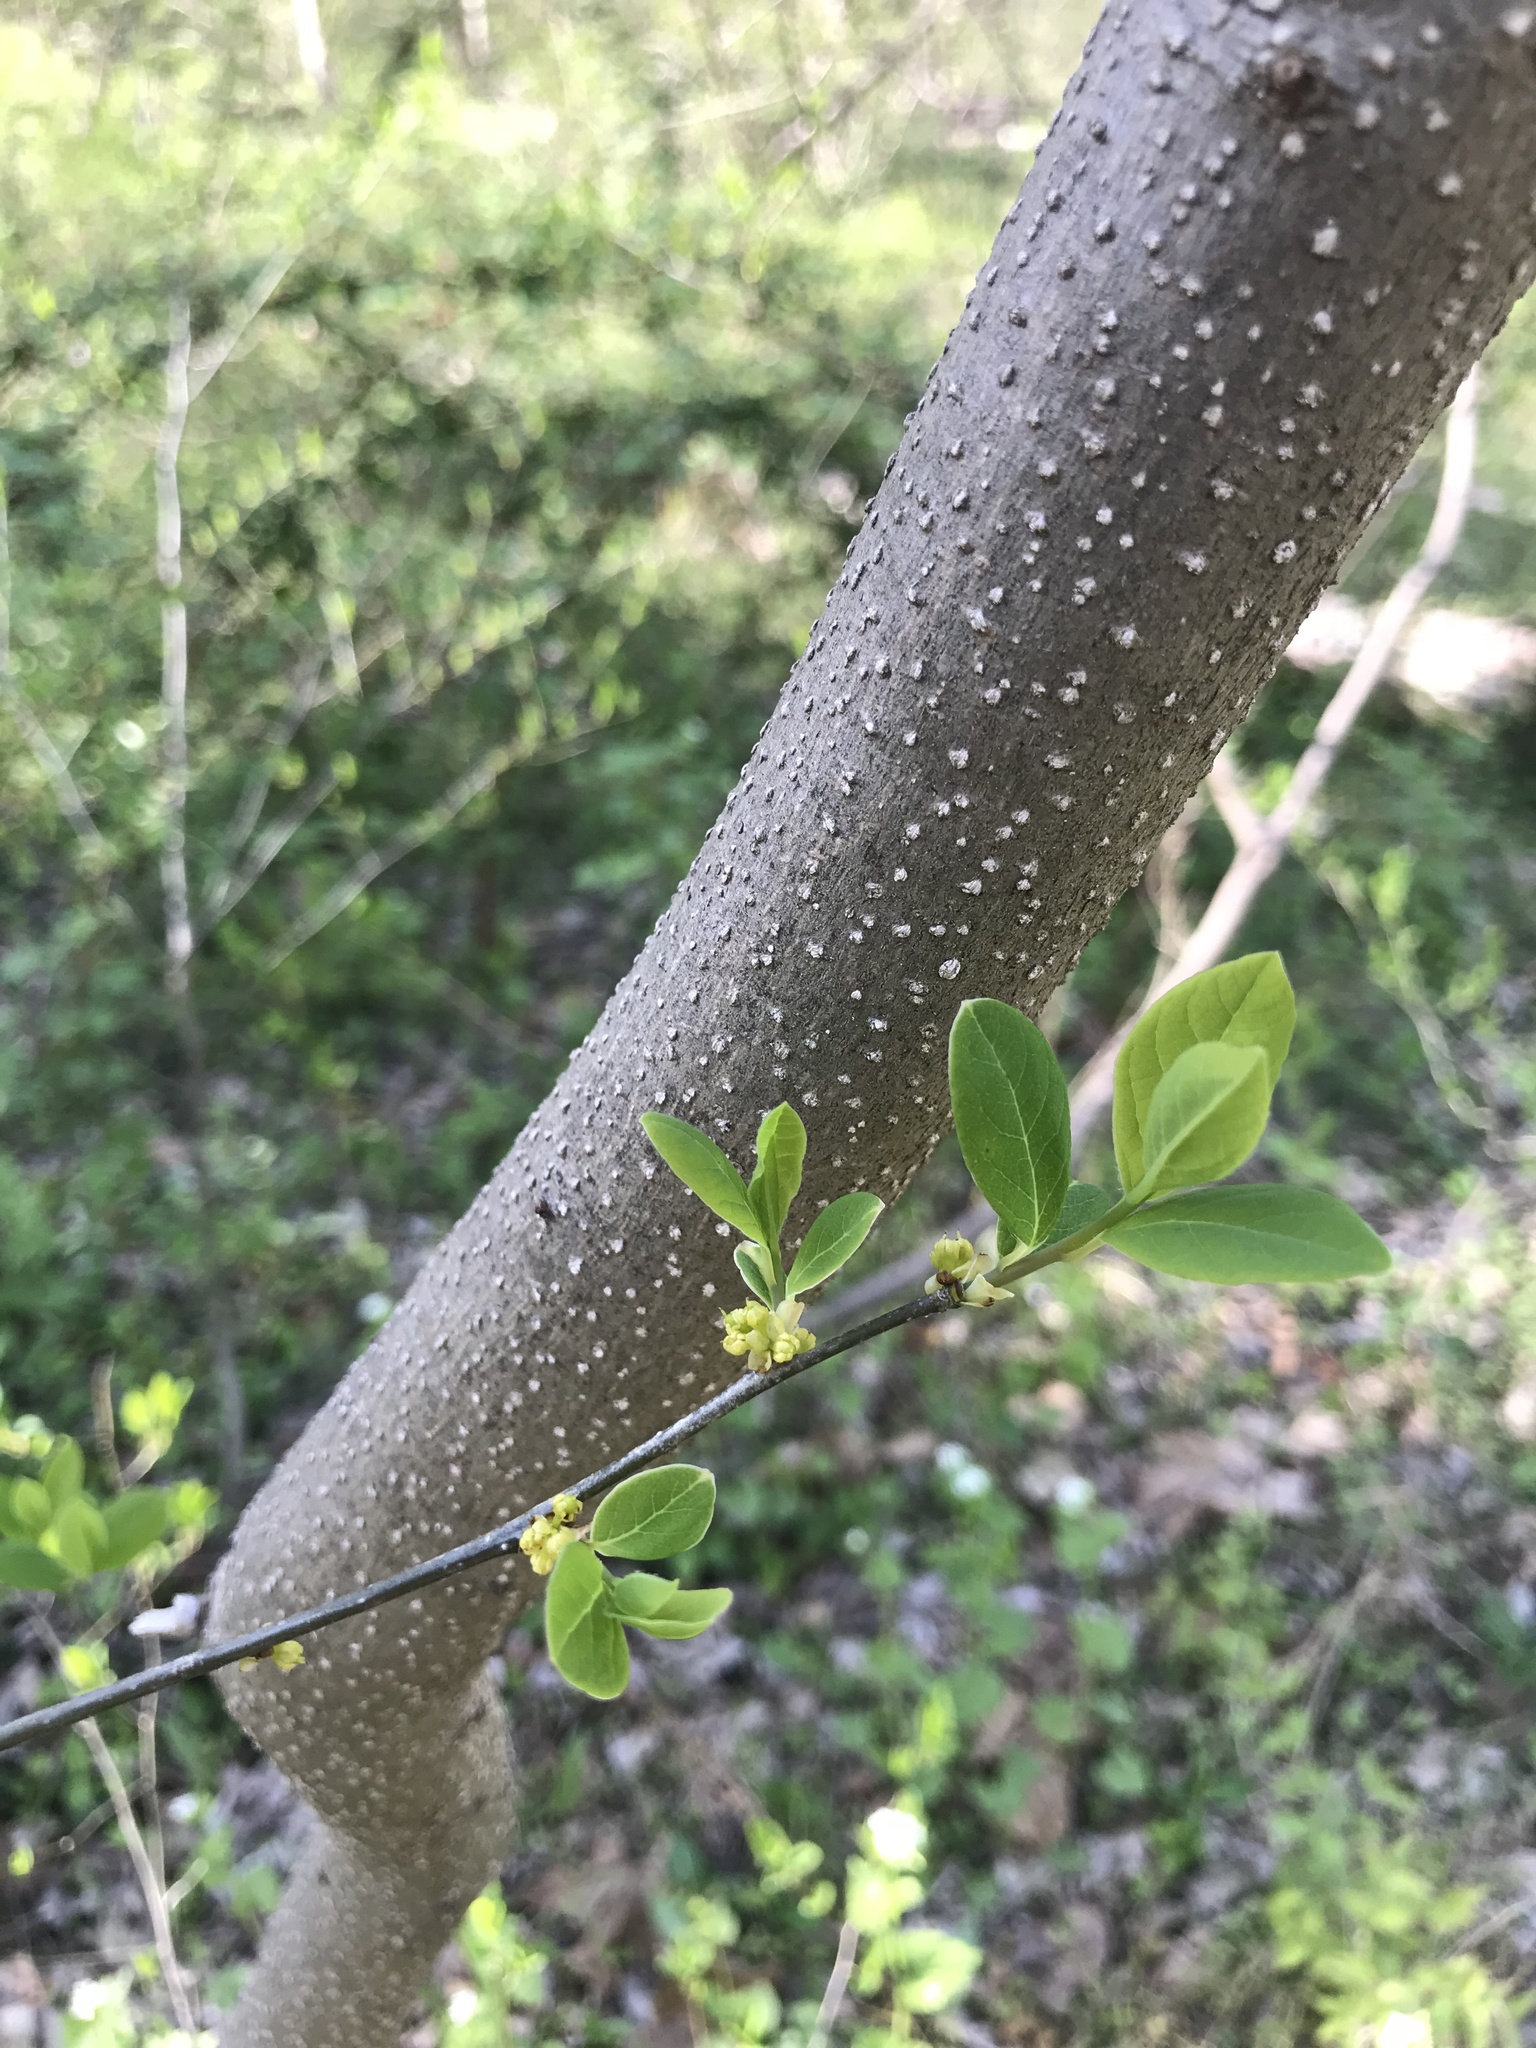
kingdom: Plantae
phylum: Tracheophyta
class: Magnoliopsida
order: Laurales
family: Lauraceae
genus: Lindera
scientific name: Lindera benzoin
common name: Spicebush
